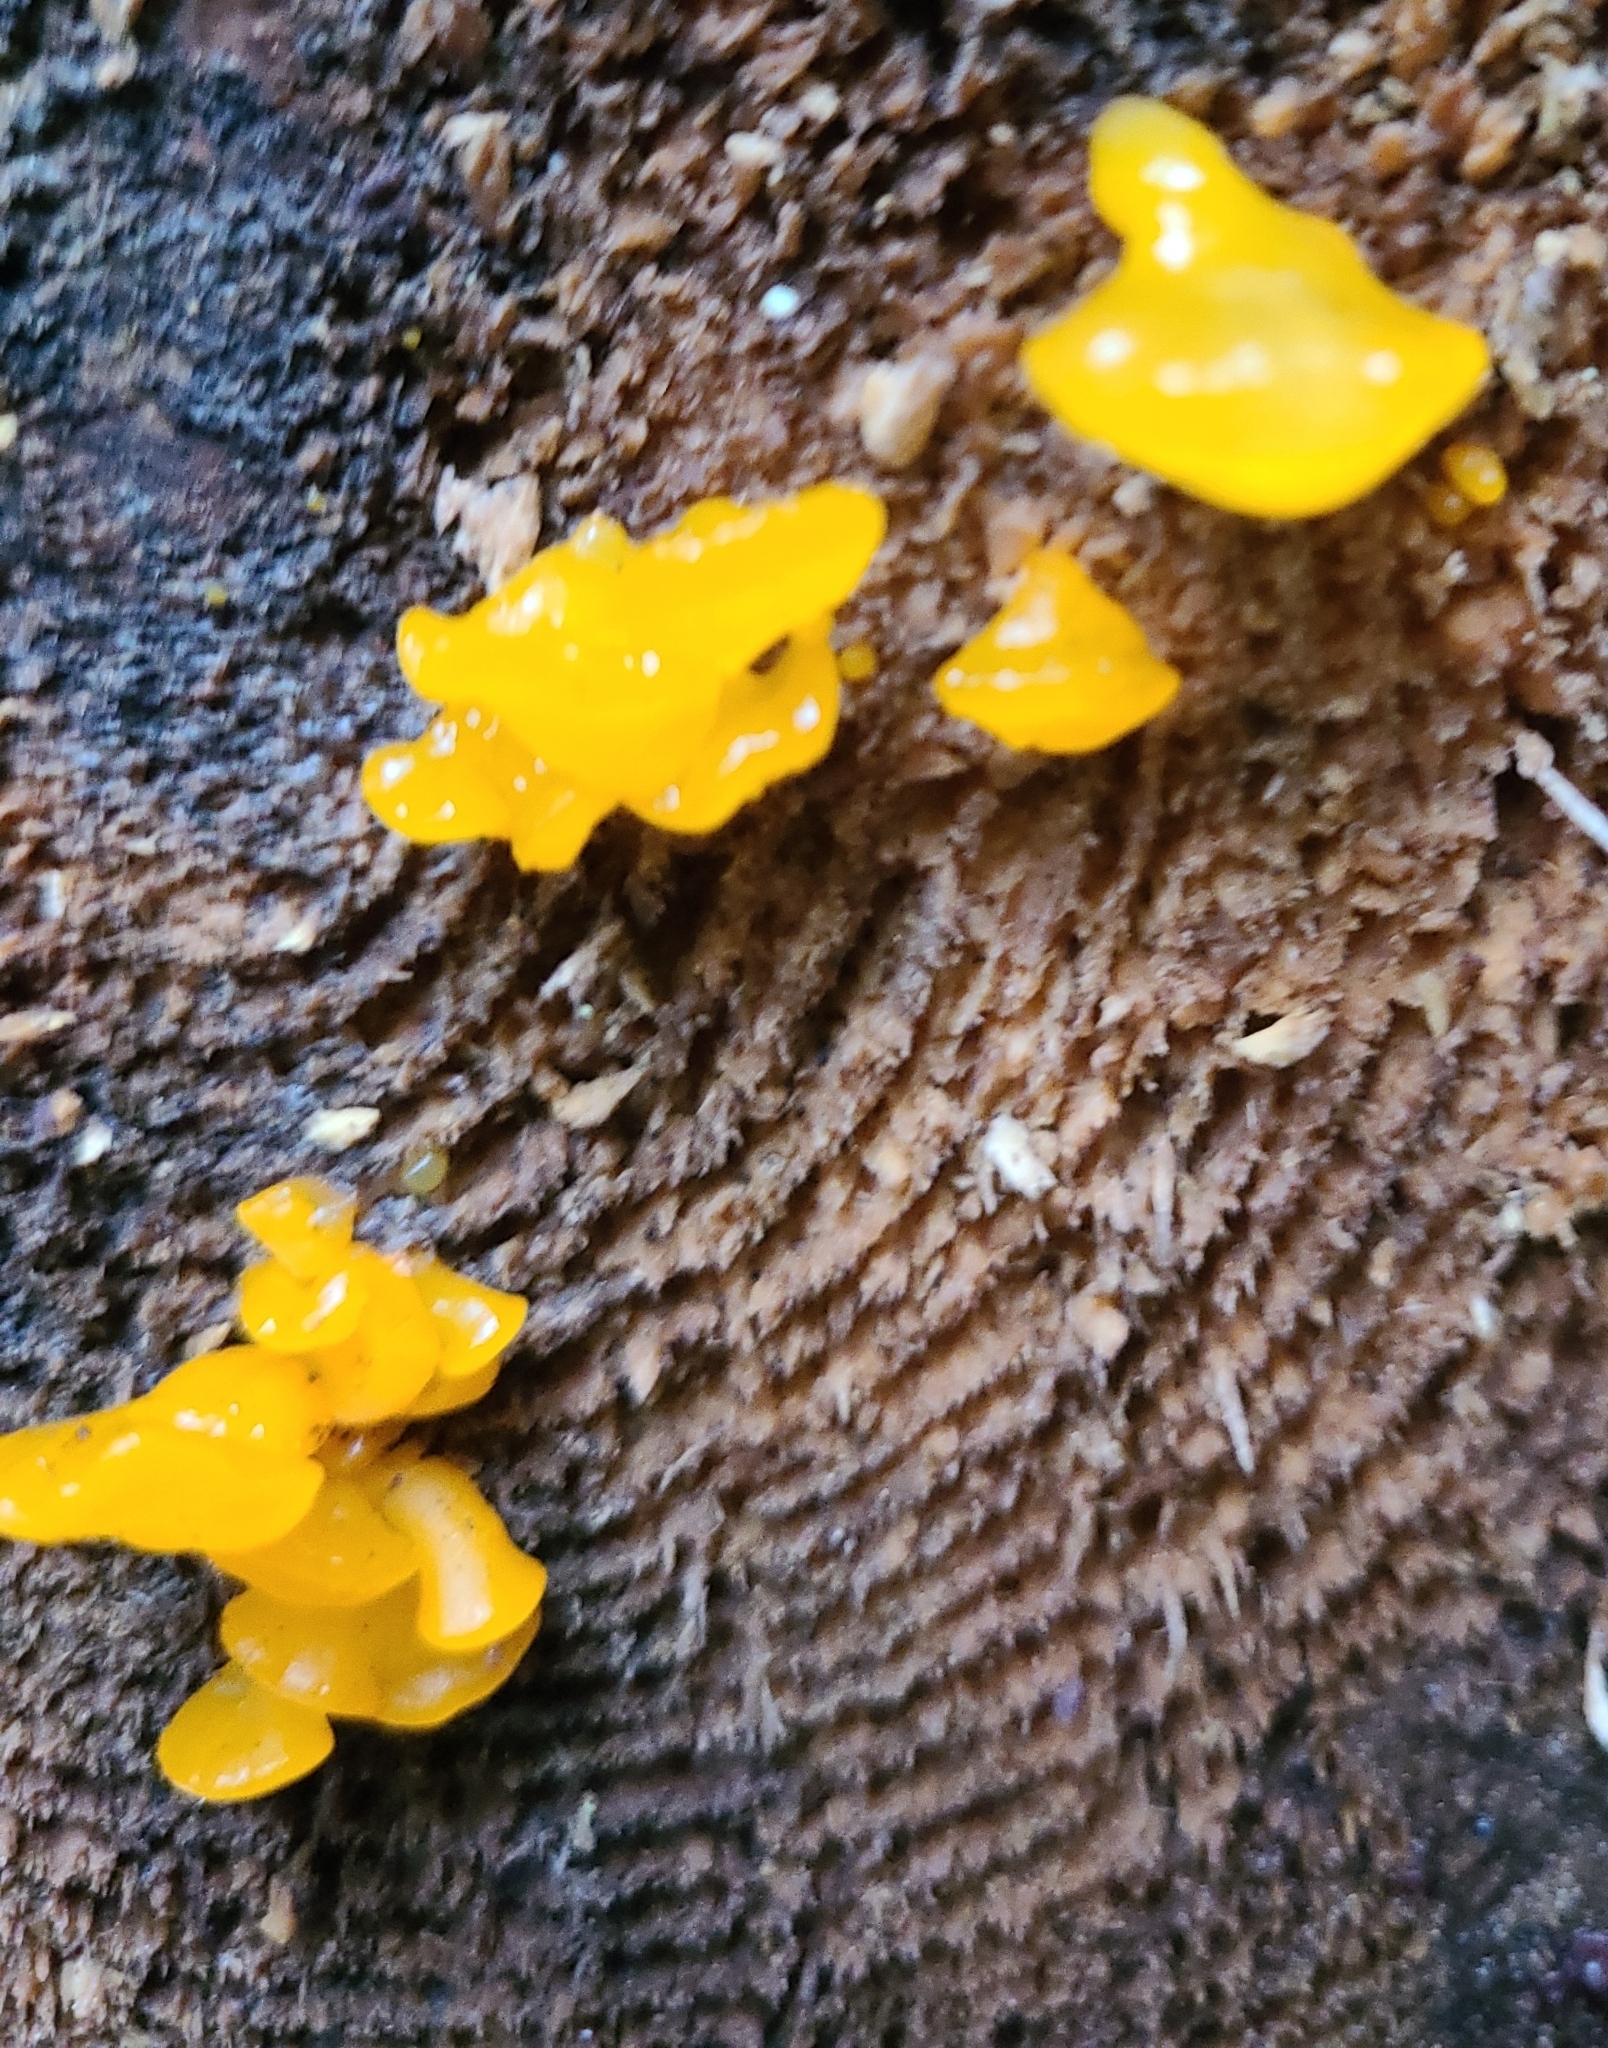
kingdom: Fungi
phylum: Basidiomycota
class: Dacrymycetes
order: Dacrymycetales
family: Dacrymycetaceae
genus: Dacrymyces
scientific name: Dacrymyces chrysospermus
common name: Orange jelly spot
